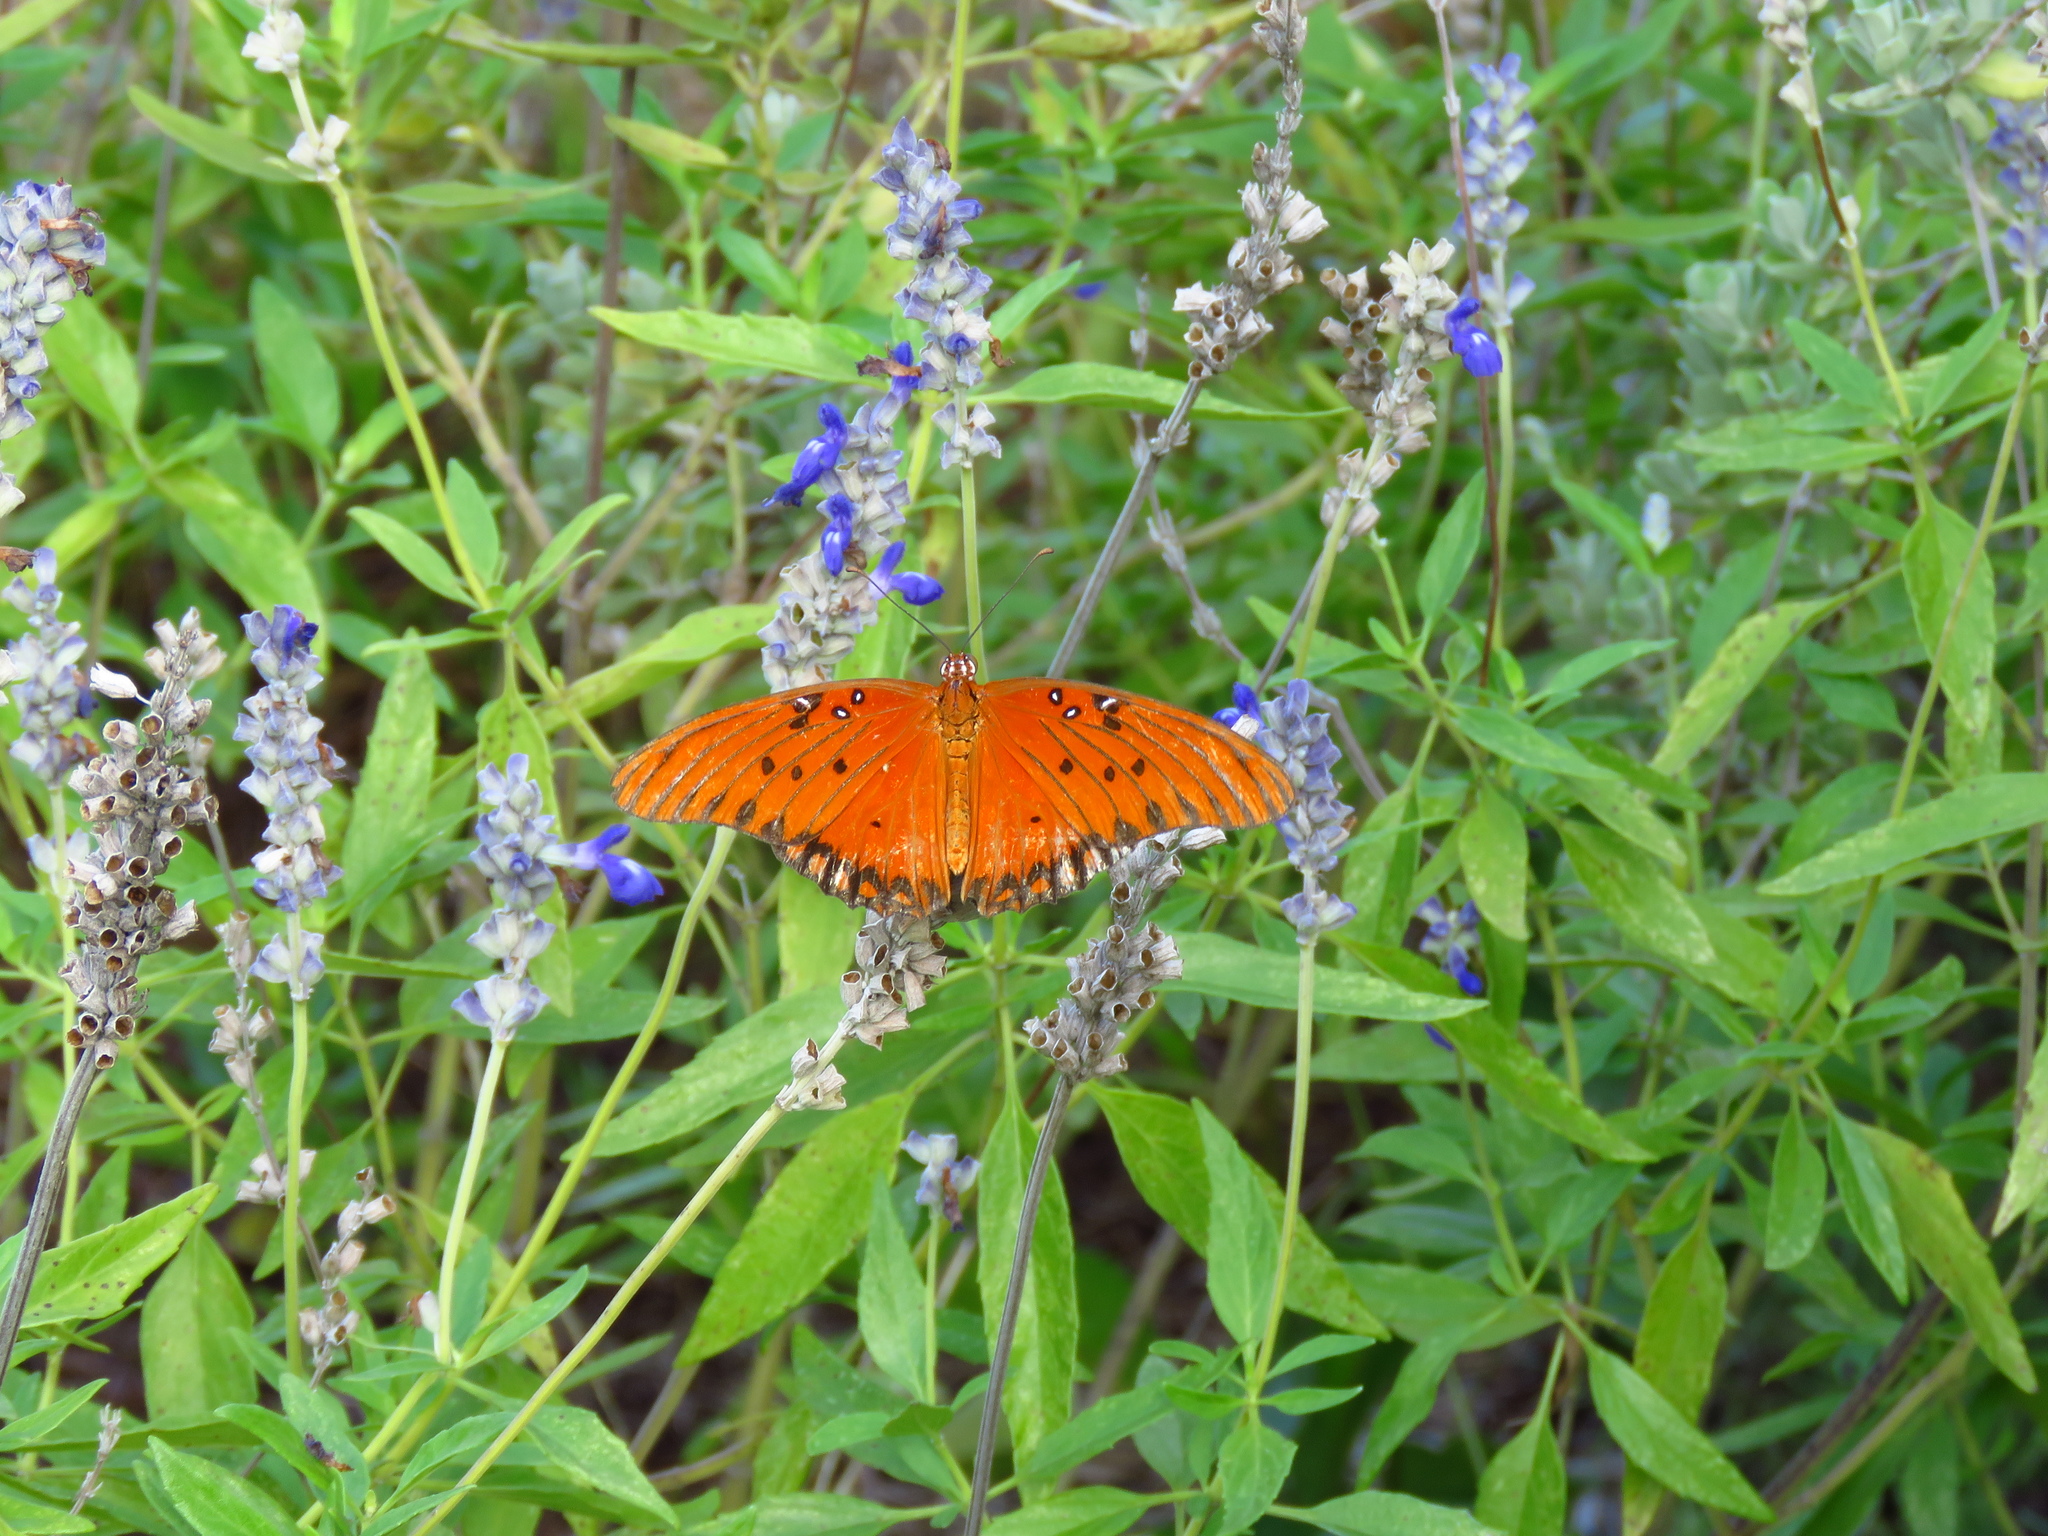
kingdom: Animalia
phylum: Arthropoda
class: Insecta
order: Lepidoptera
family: Nymphalidae
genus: Dione
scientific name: Dione vanillae
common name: Gulf fritillary
